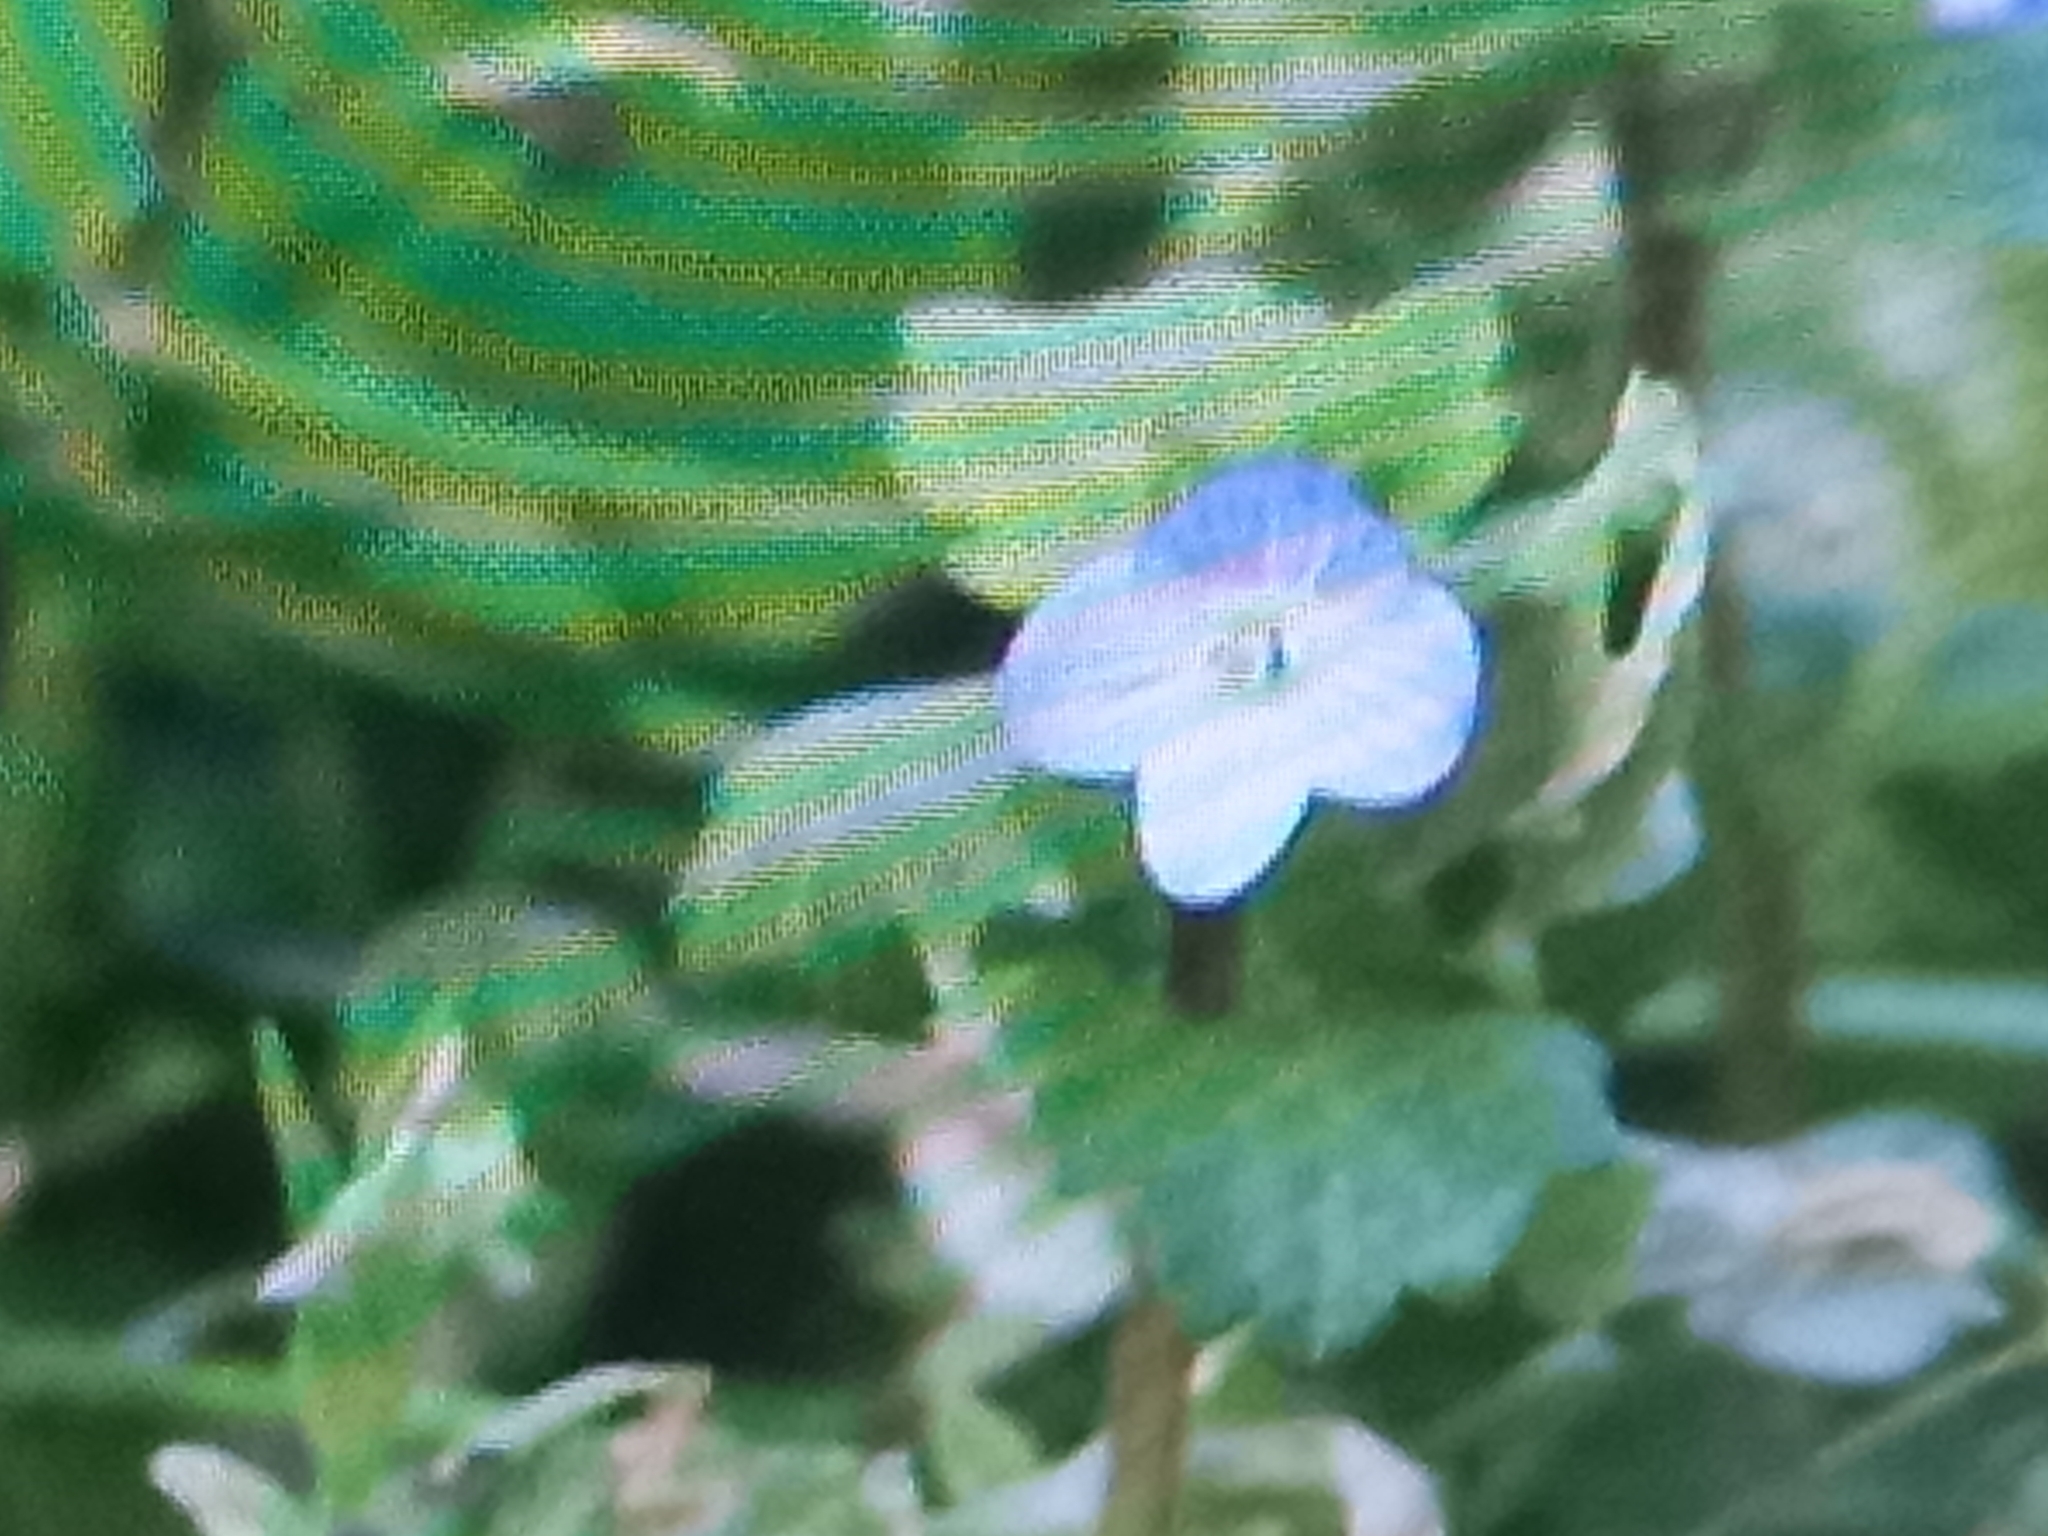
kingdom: Plantae
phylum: Tracheophyta
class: Magnoliopsida
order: Lamiales
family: Plantaginaceae
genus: Veronica
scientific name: Veronica persica
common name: Common field-speedwell
